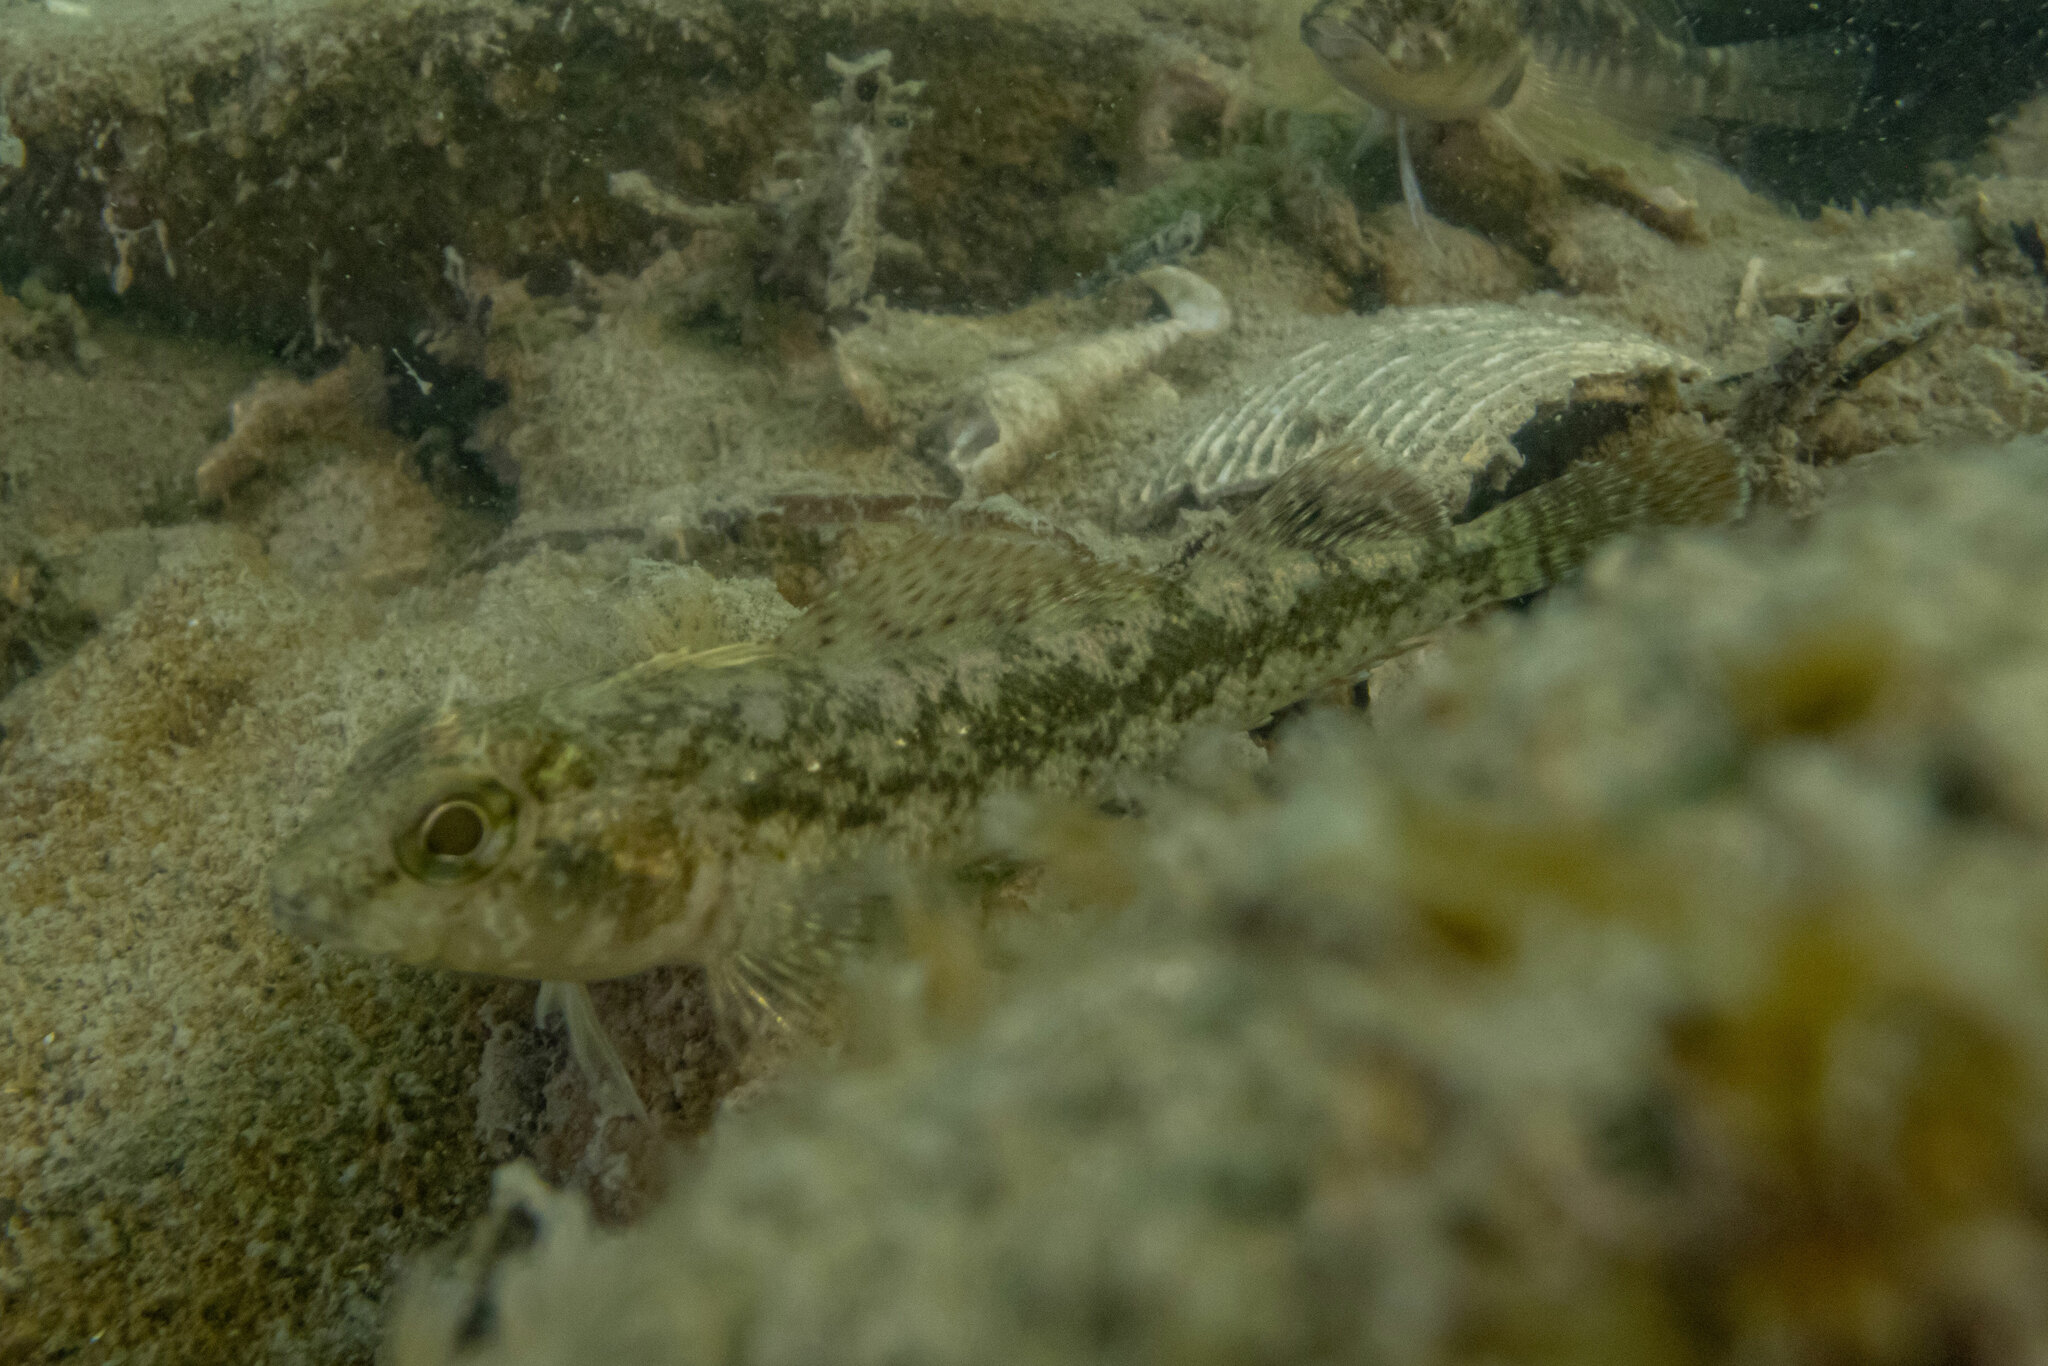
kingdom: Animalia
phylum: Chordata
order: Perciformes
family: Tripterygiidae
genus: Forsterygion
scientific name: Forsterygion capito
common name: Spotted robust triplefin
